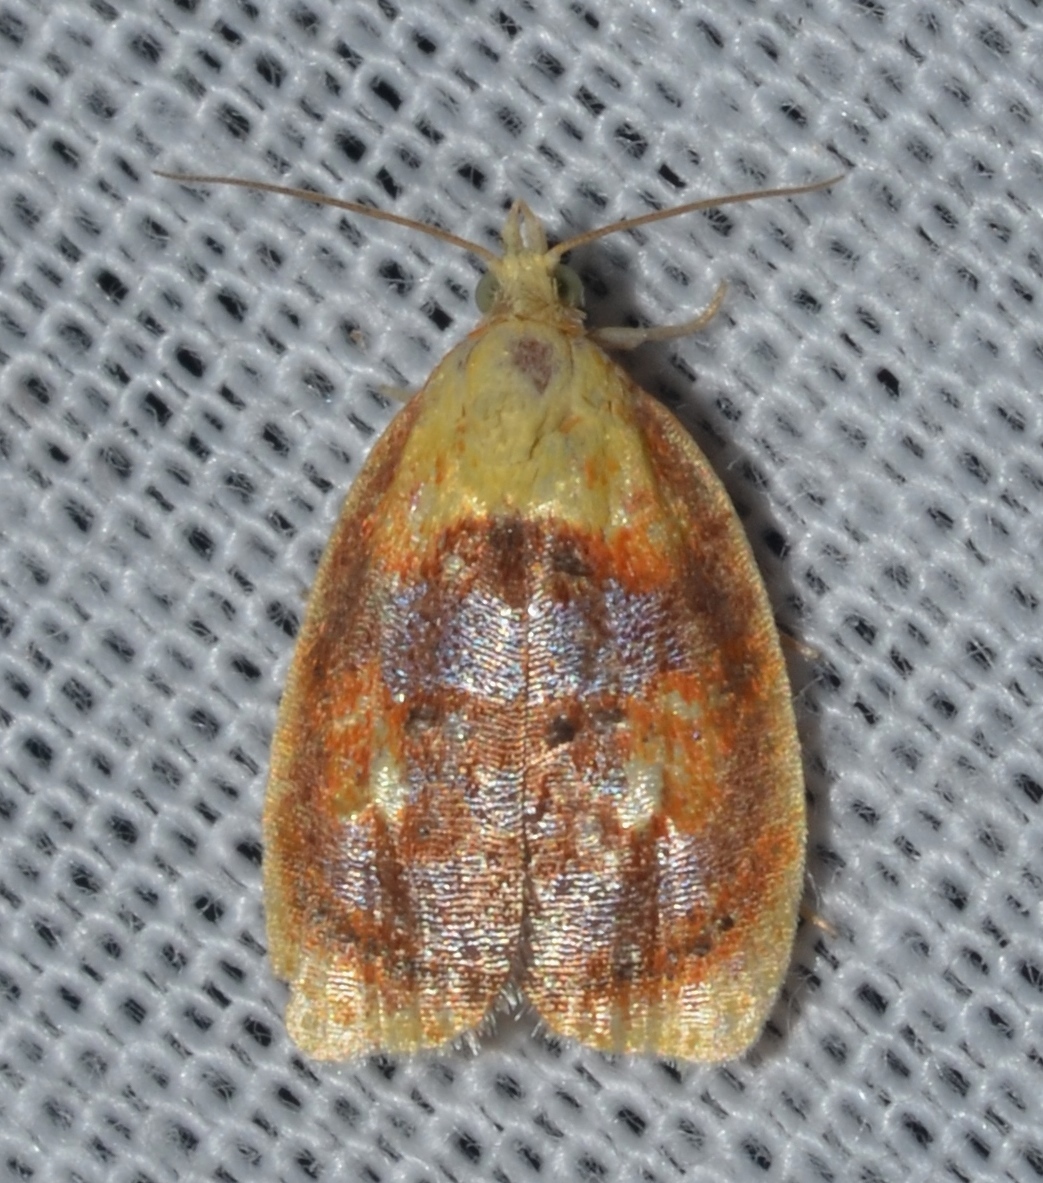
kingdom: Animalia
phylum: Arthropoda
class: Insecta
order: Lepidoptera
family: Tortricidae
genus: Acleris
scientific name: Acleris curvalana
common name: Blueberry leaftier moth
